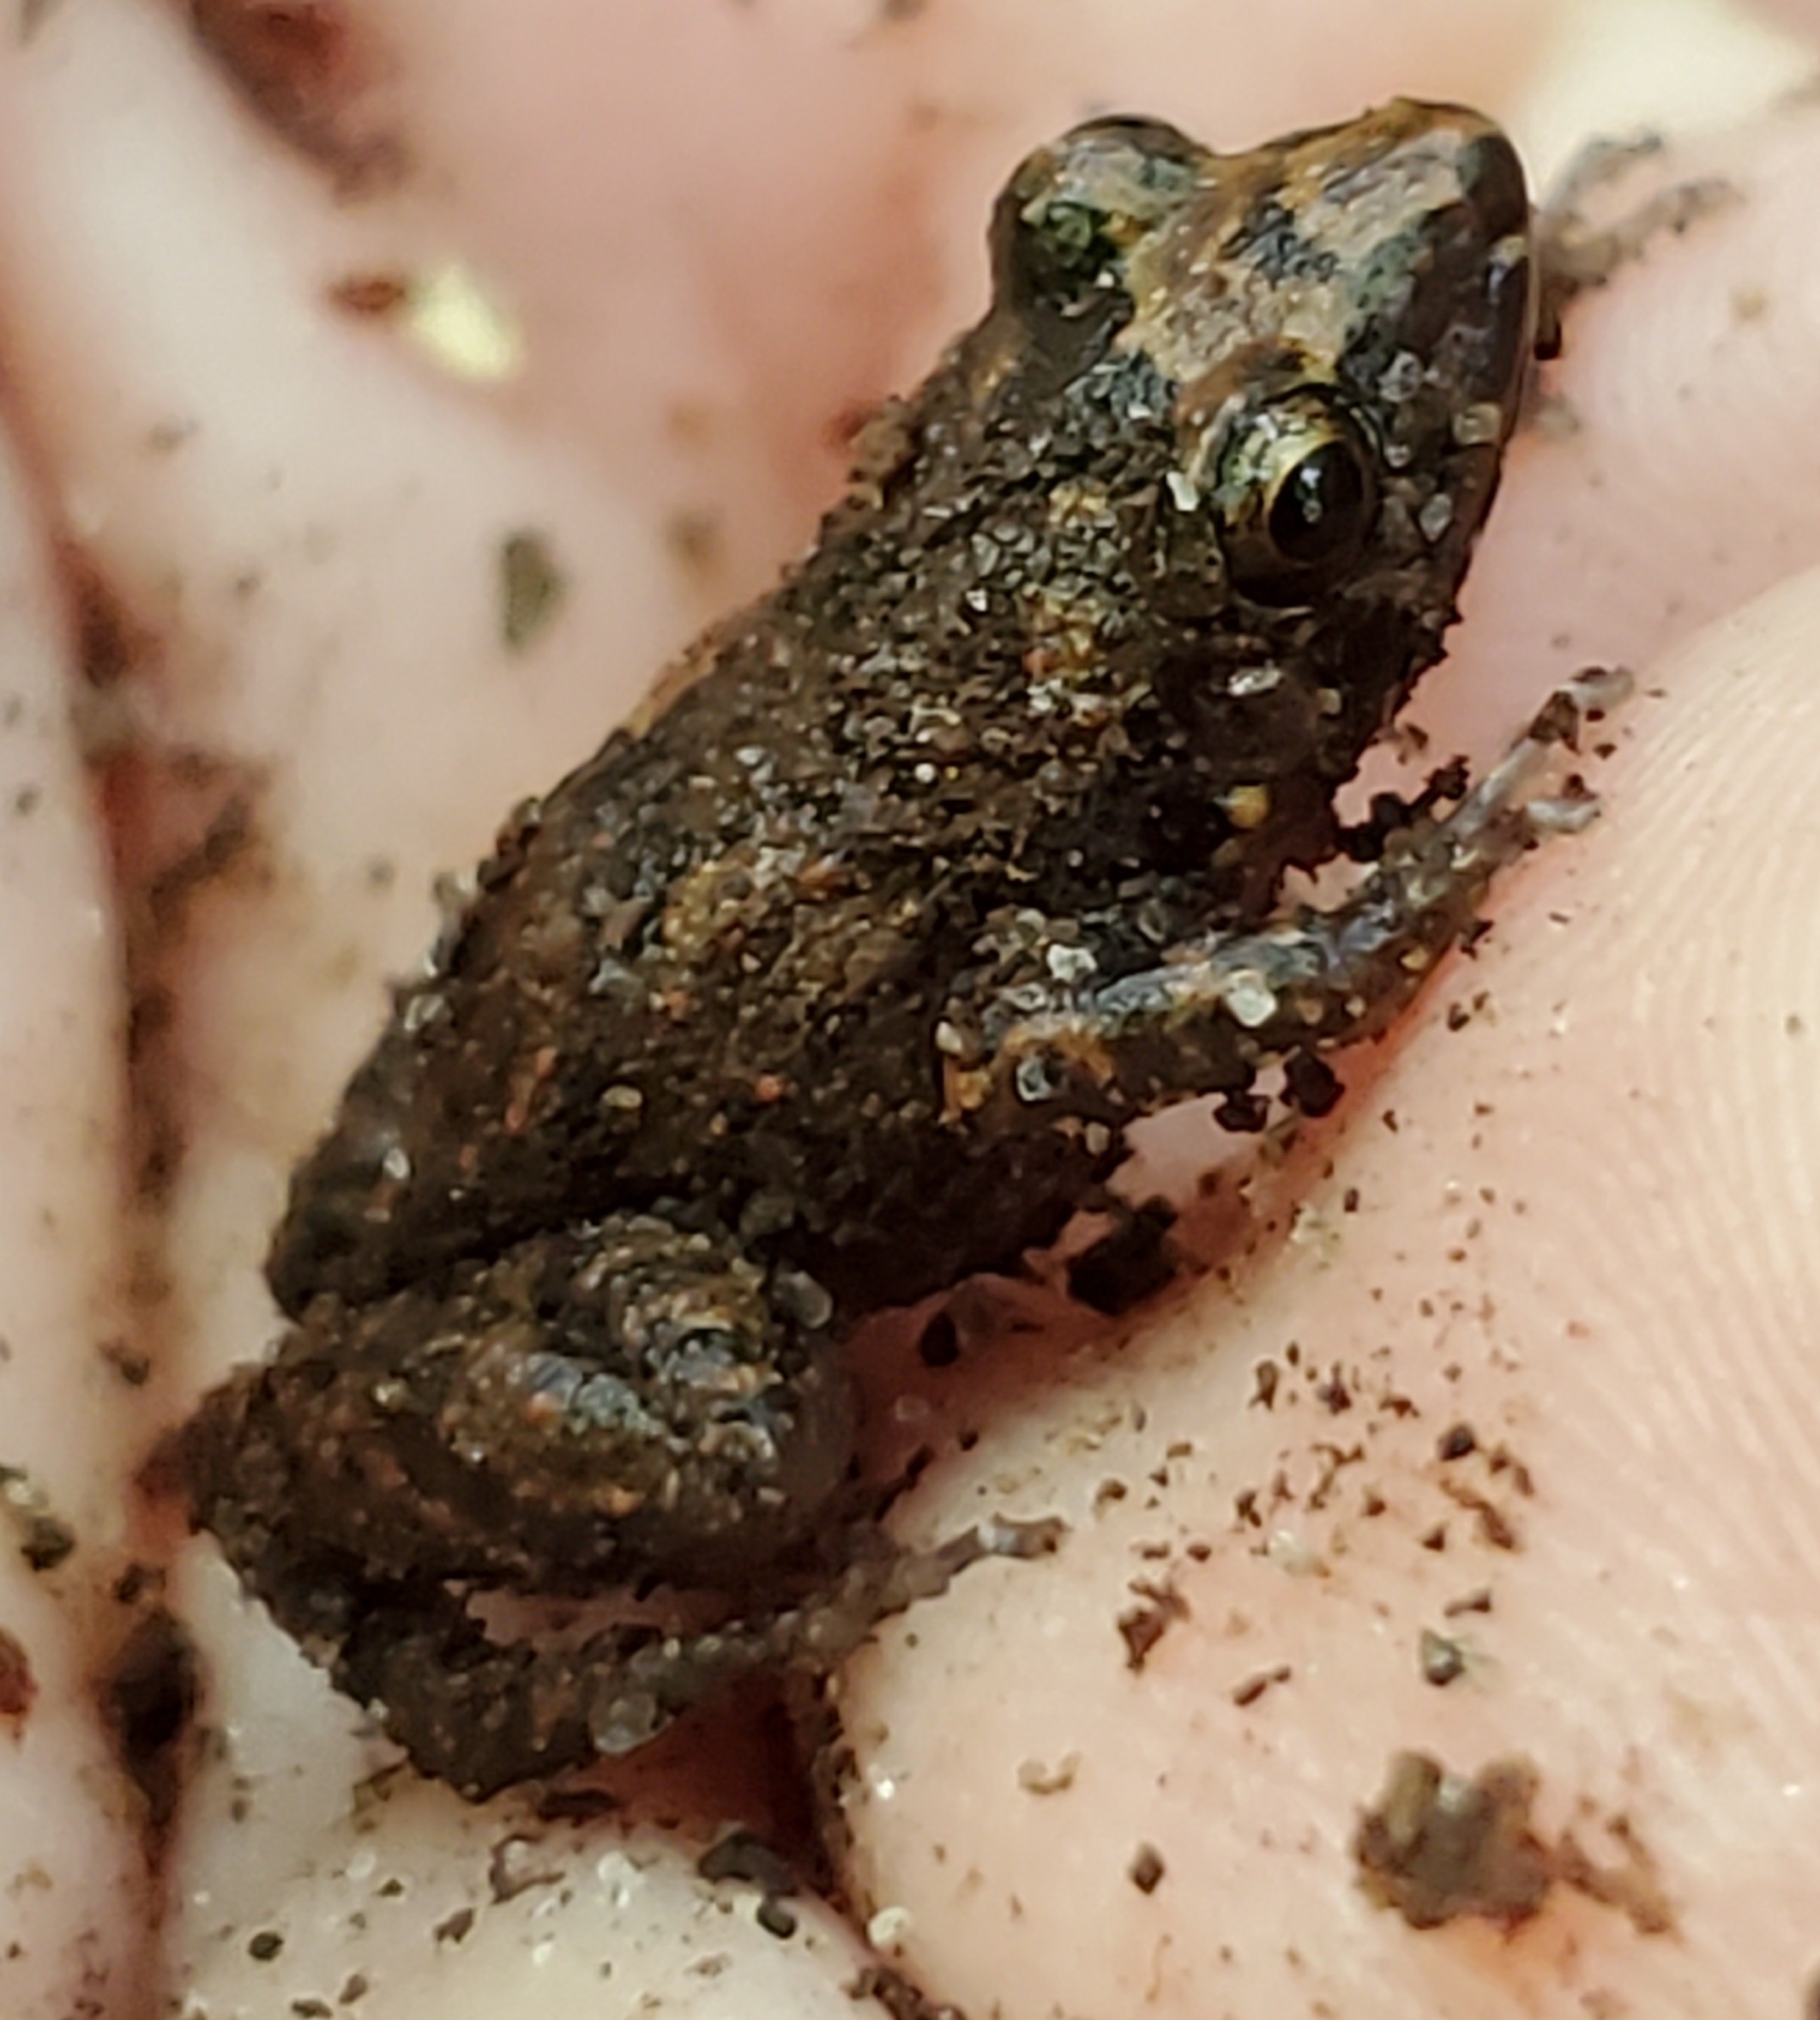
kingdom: Animalia
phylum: Chordata
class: Amphibia
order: Anura
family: Eleutherodactylidae
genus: Eleutherodactylus
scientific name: Eleutherodactylus planirostris
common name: Greenhouse frog
